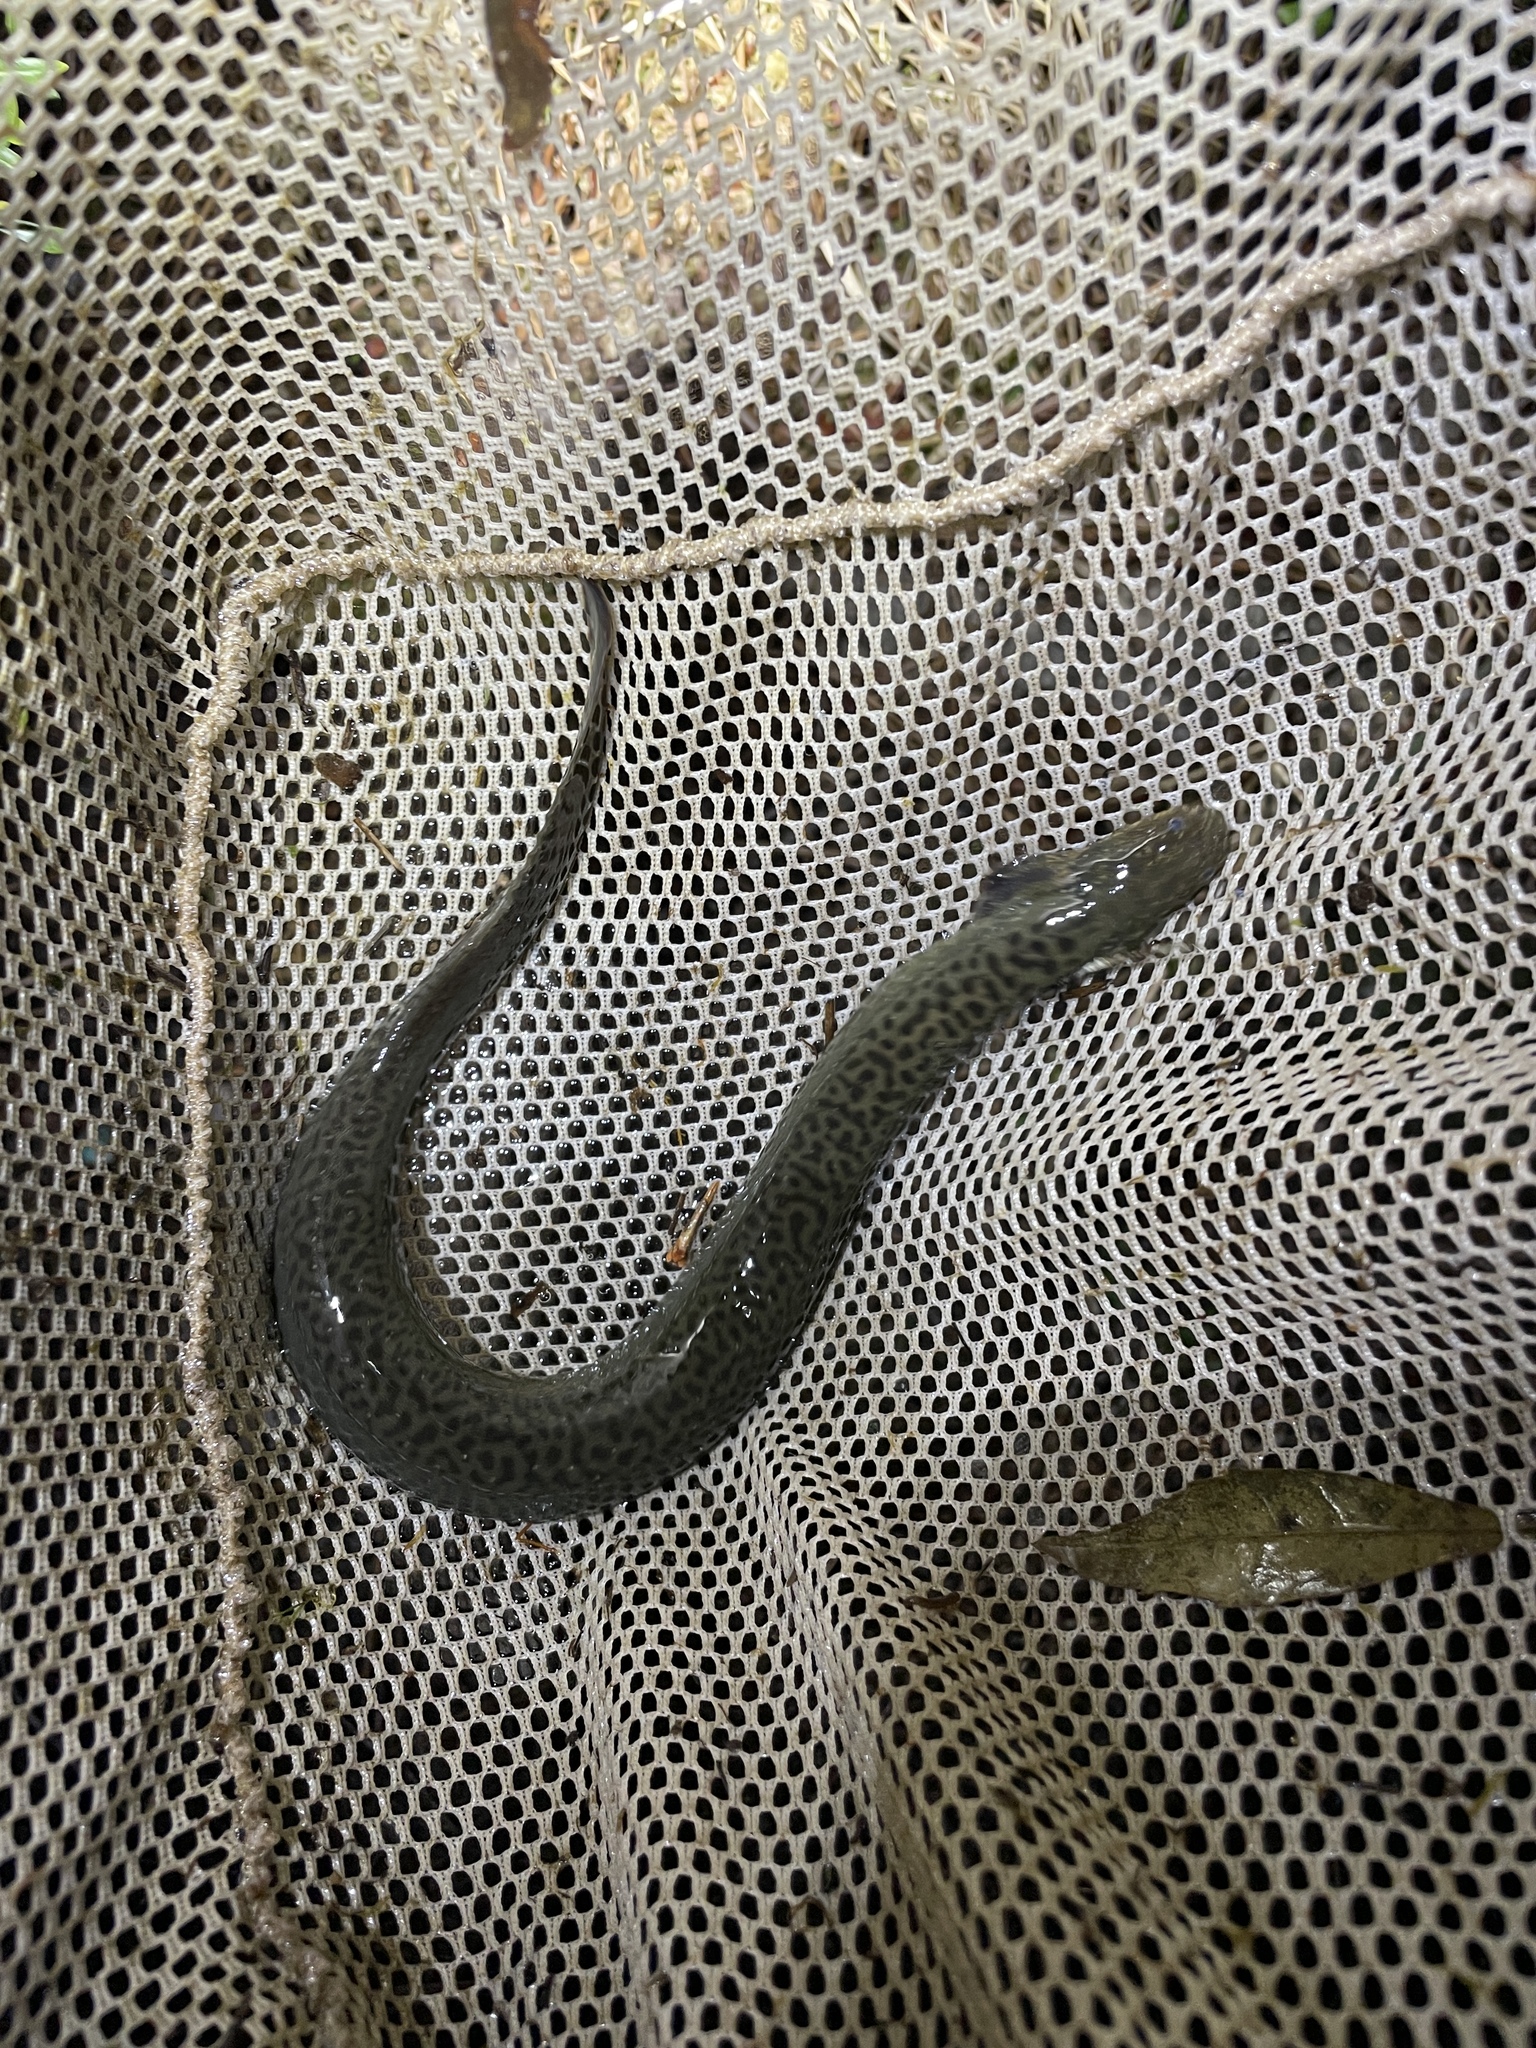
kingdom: Animalia
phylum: Chordata
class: Amphibia
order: Caudata
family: Sirenidae
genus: Siren
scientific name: Siren reticulata
